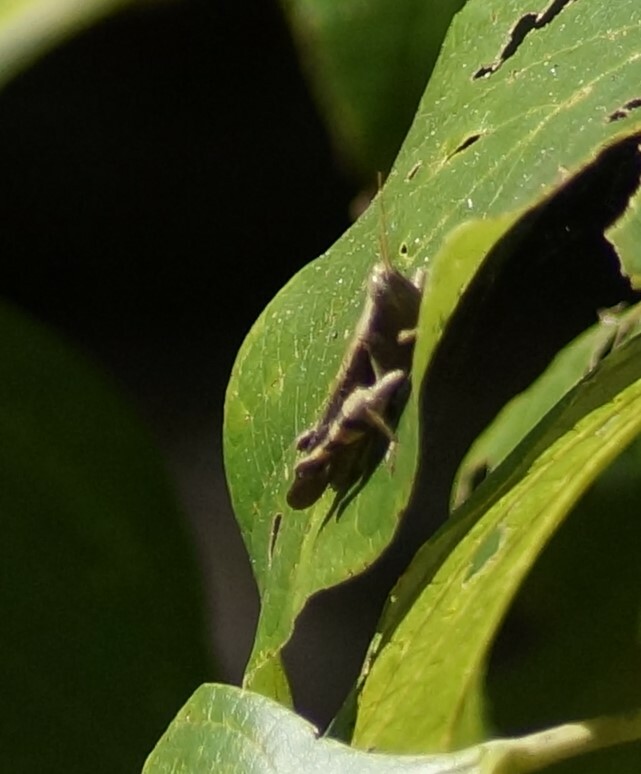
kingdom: Animalia
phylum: Arthropoda
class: Insecta
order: Orthoptera
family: Acrididae
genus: Stenocatantops
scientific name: Stenocatantops angustifrons
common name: Common tropical sharptail
